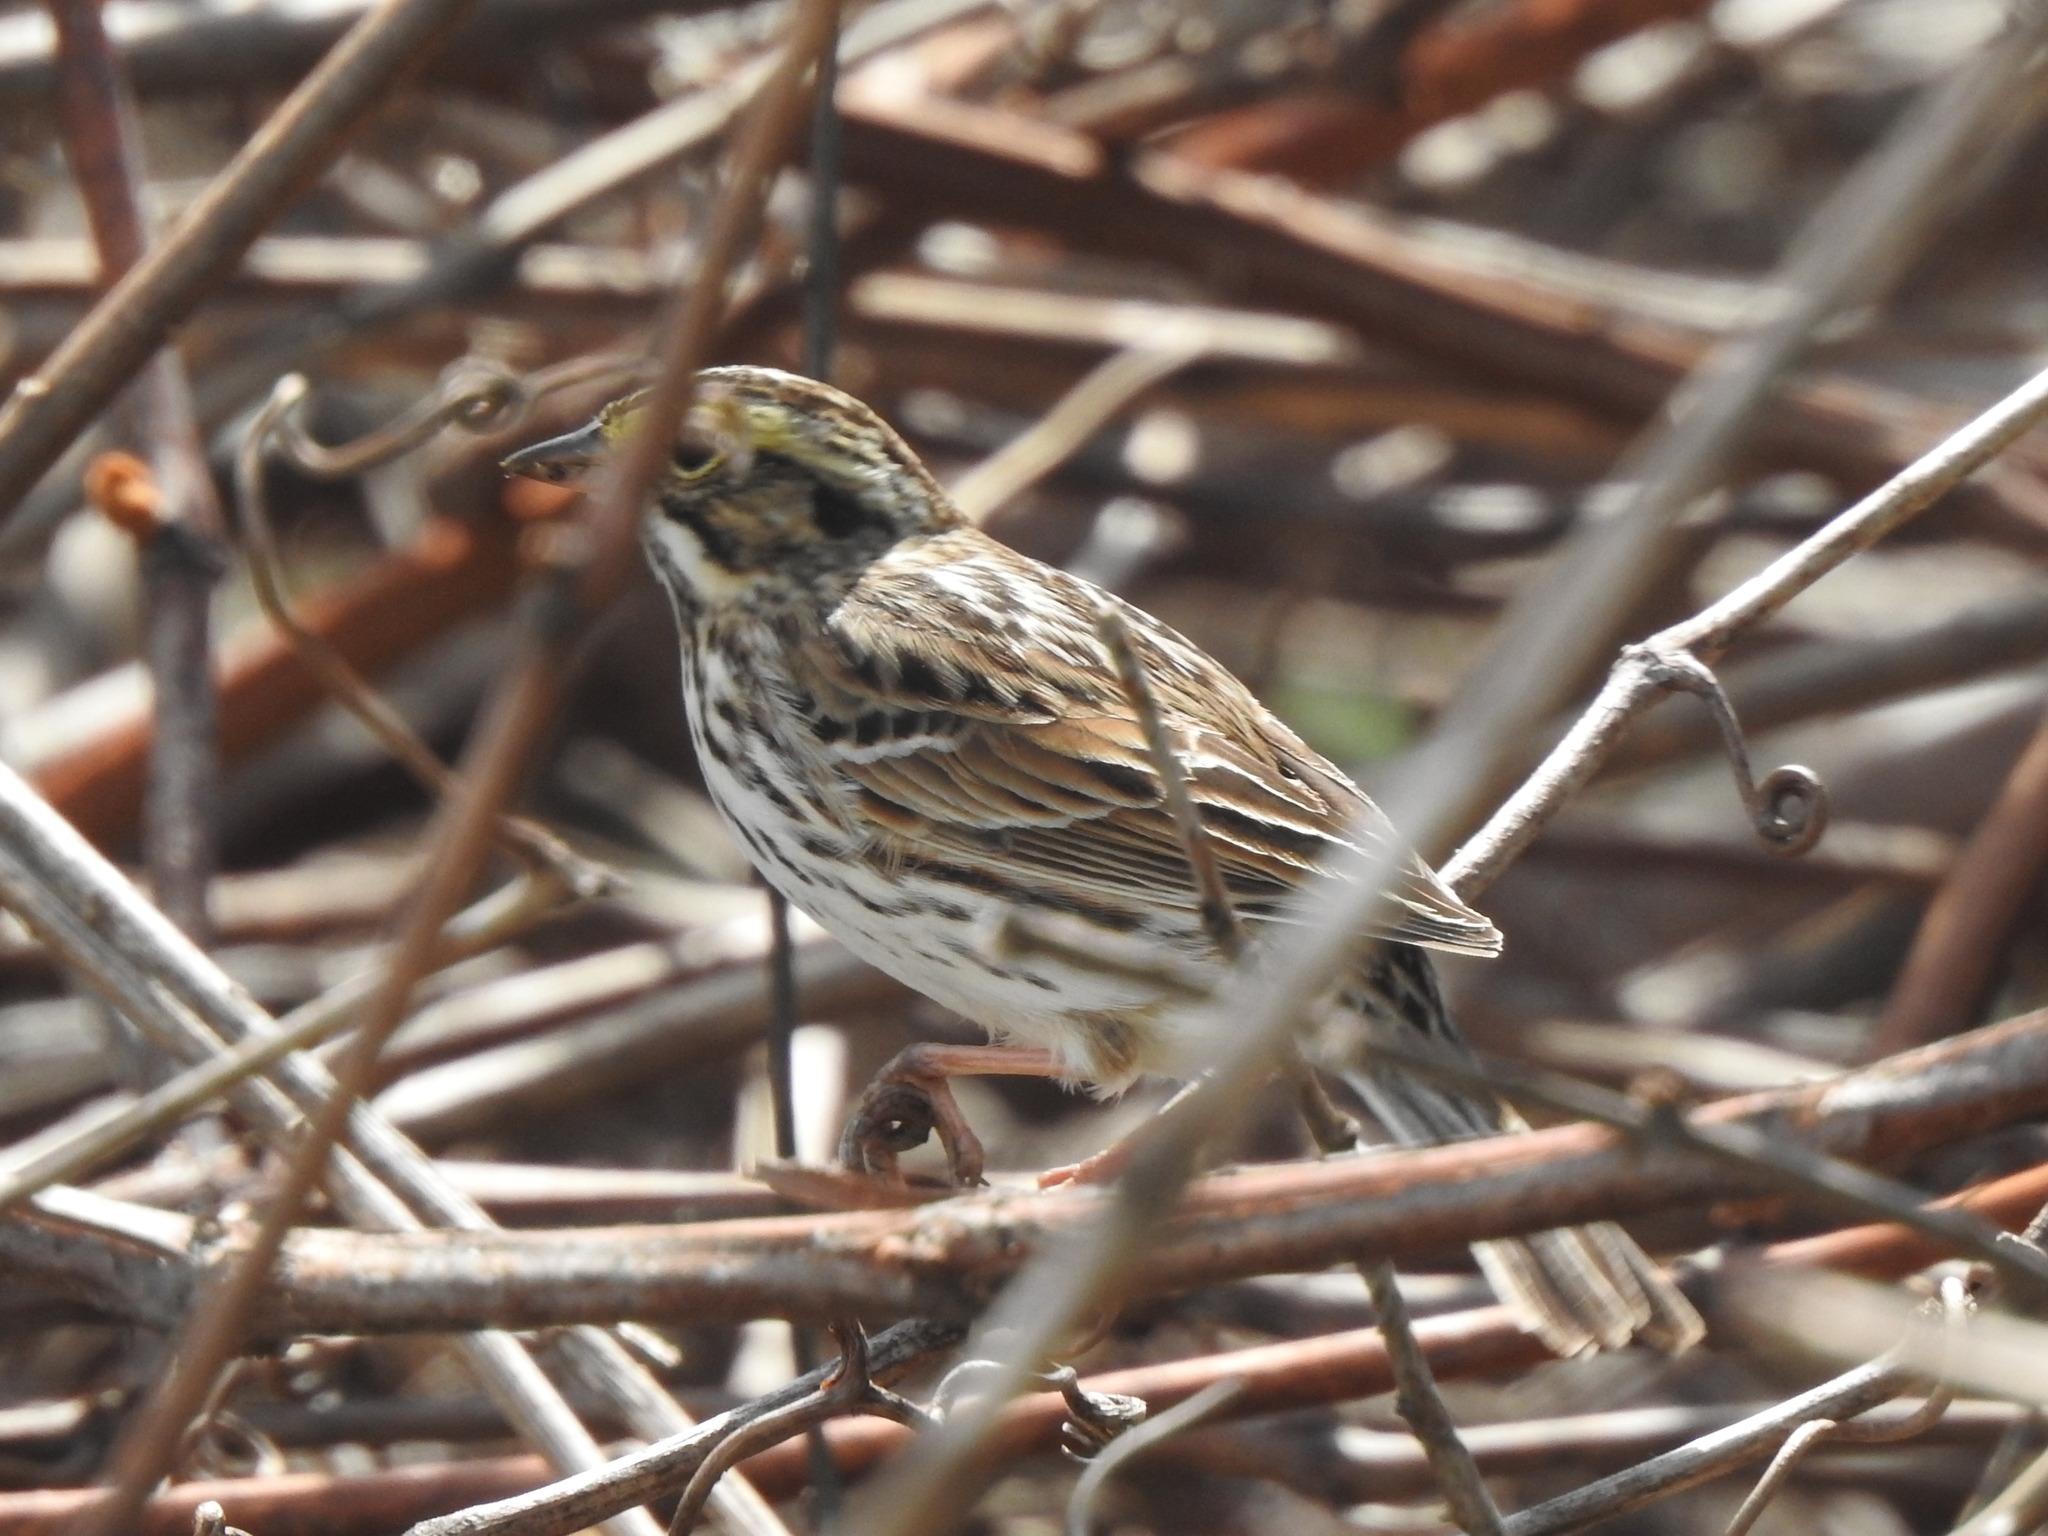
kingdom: Animalia
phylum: Chordata
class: Aves
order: Passeriformes
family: Passerellidae
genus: Passerculus
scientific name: Passerculus sandwichensis
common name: Savannah sparrow
